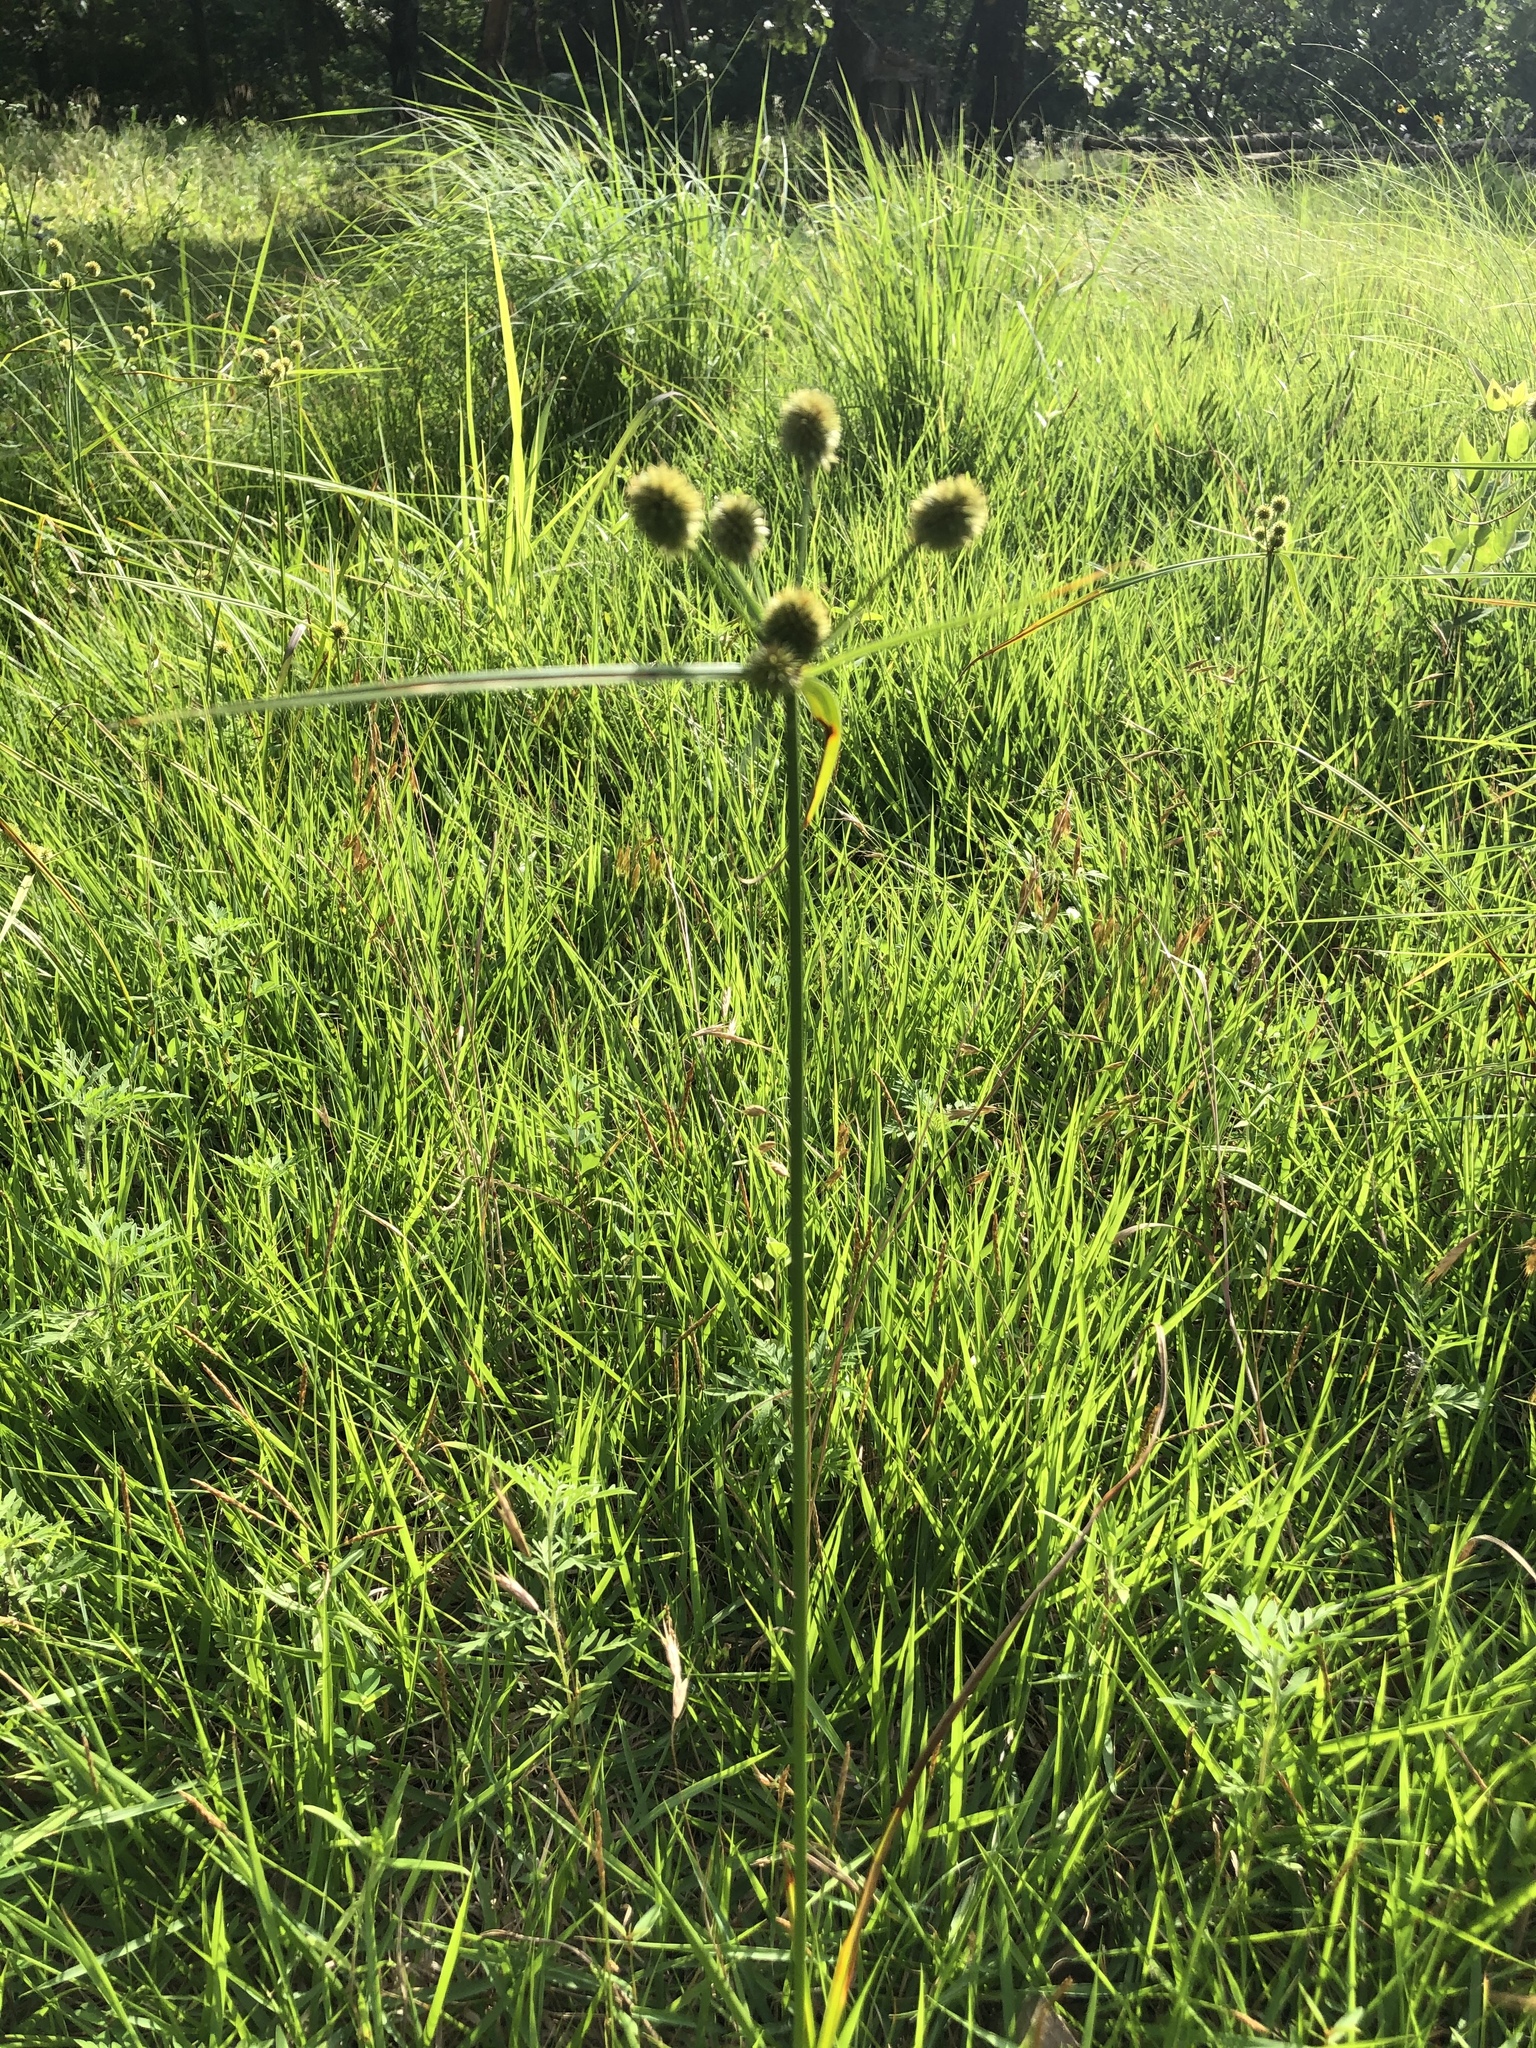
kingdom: Plantae
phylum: Tracheophyta
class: Liliopsida
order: Poales
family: Cyperaceae
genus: Cyperus
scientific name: Cyperus echinatus
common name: Teasel sedge
